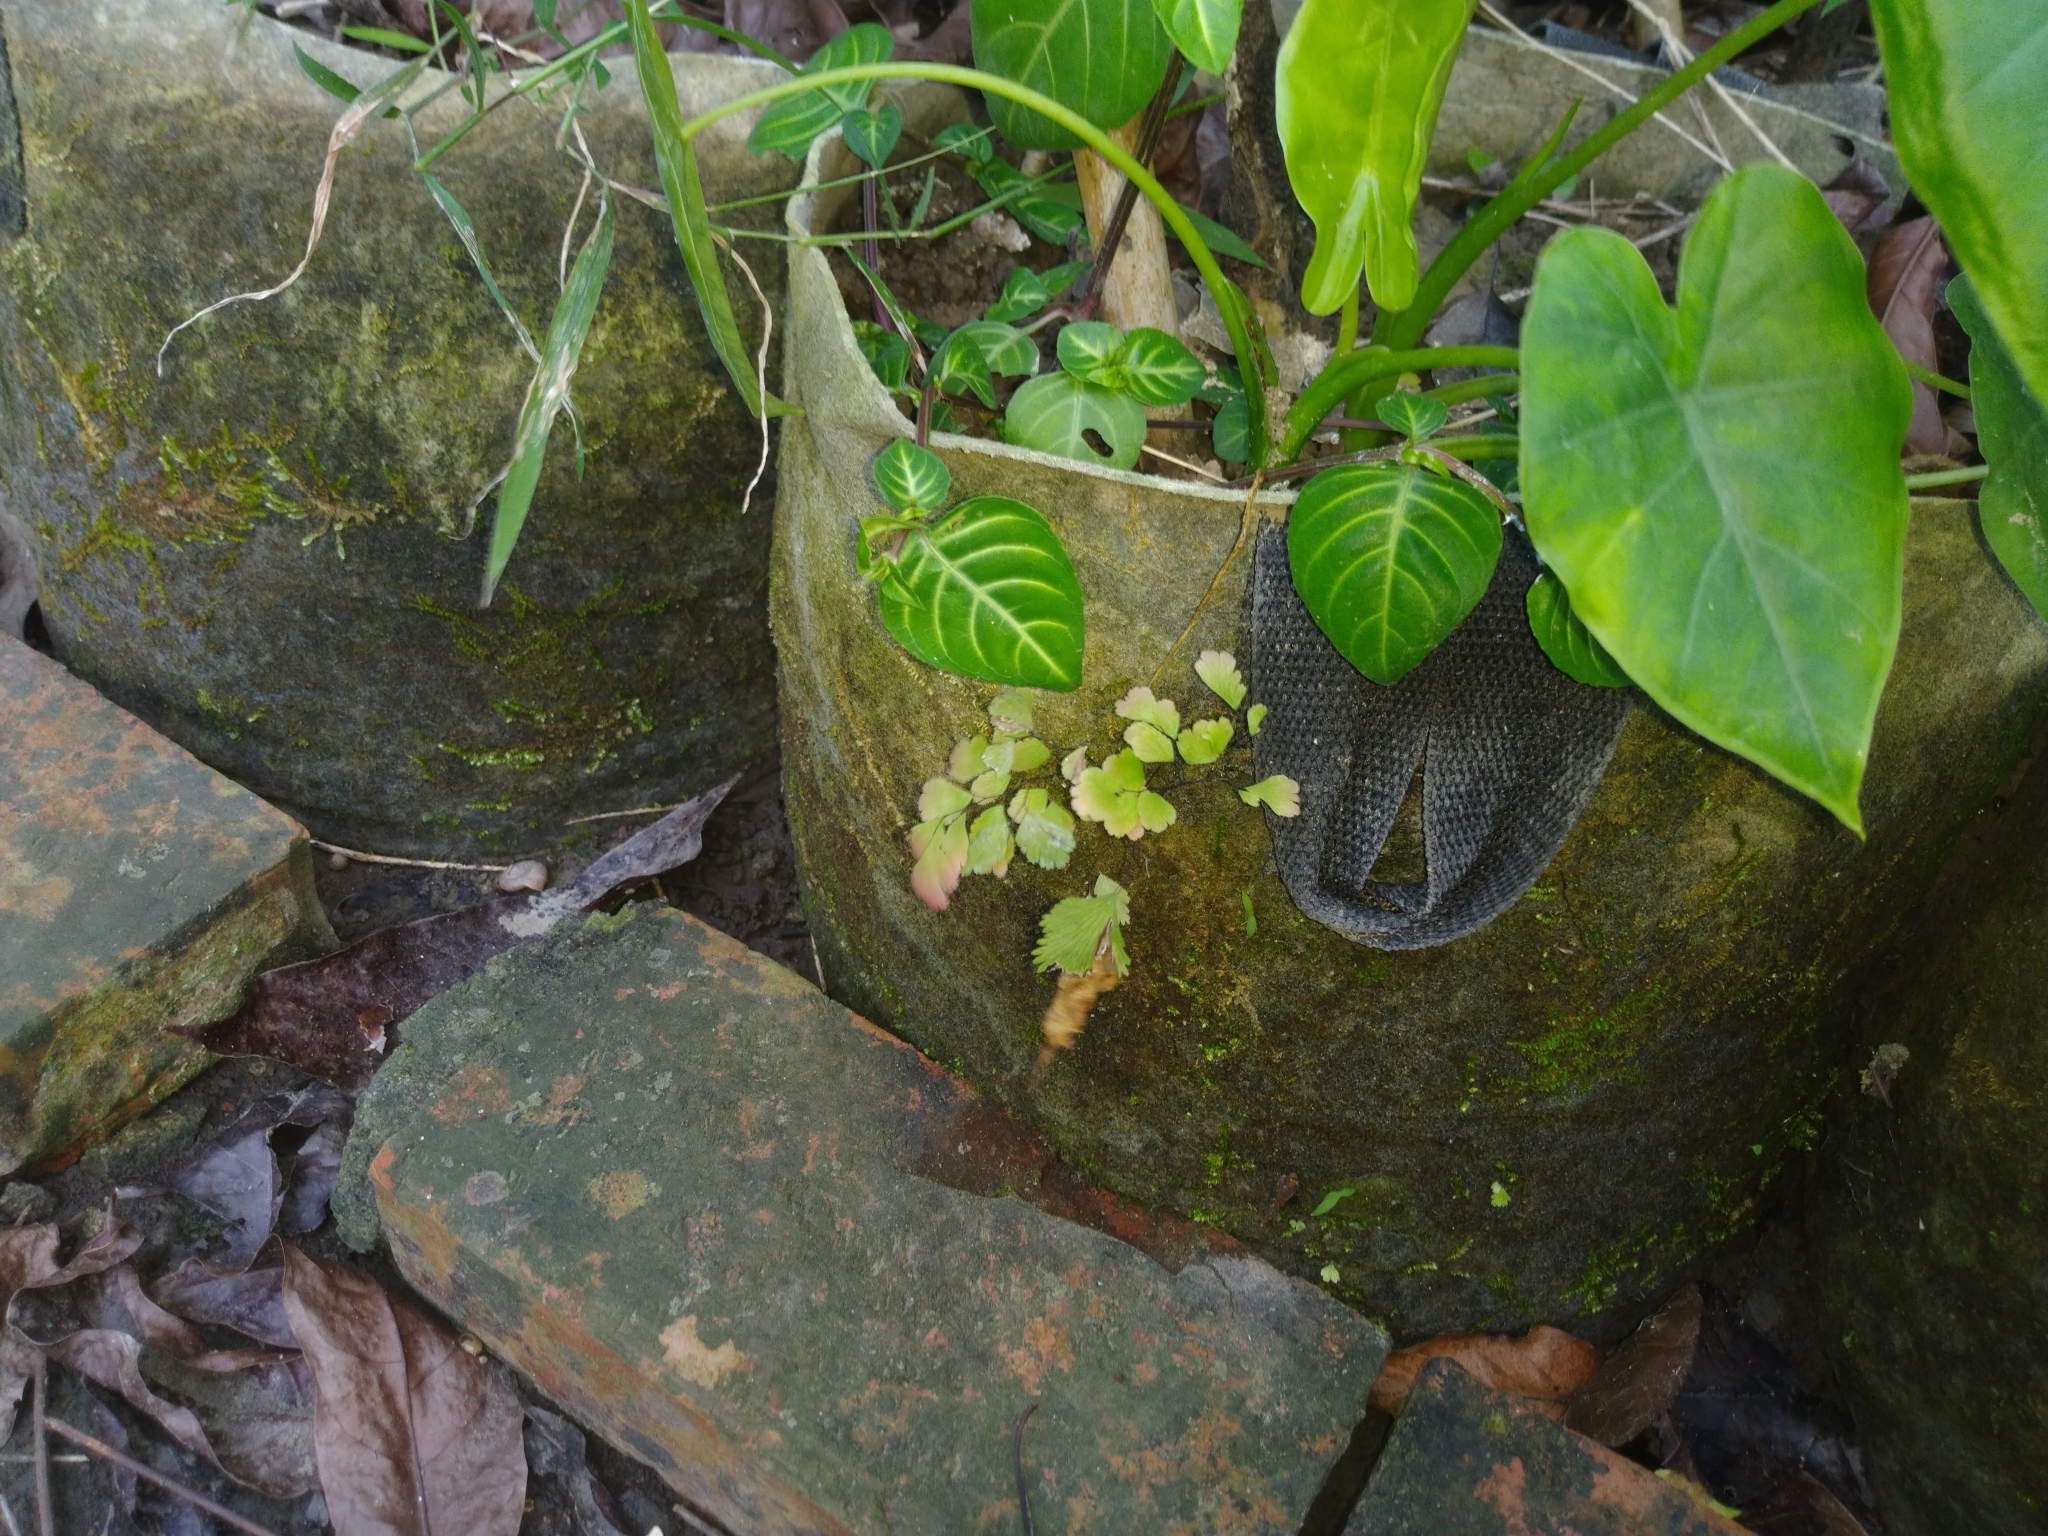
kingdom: Plantae
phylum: Tracheophyta
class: Polypodiopsida
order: Polypodiales
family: Pteridaceae
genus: Adiantum
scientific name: Adiantum tenerum
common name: Fan maidenhair
